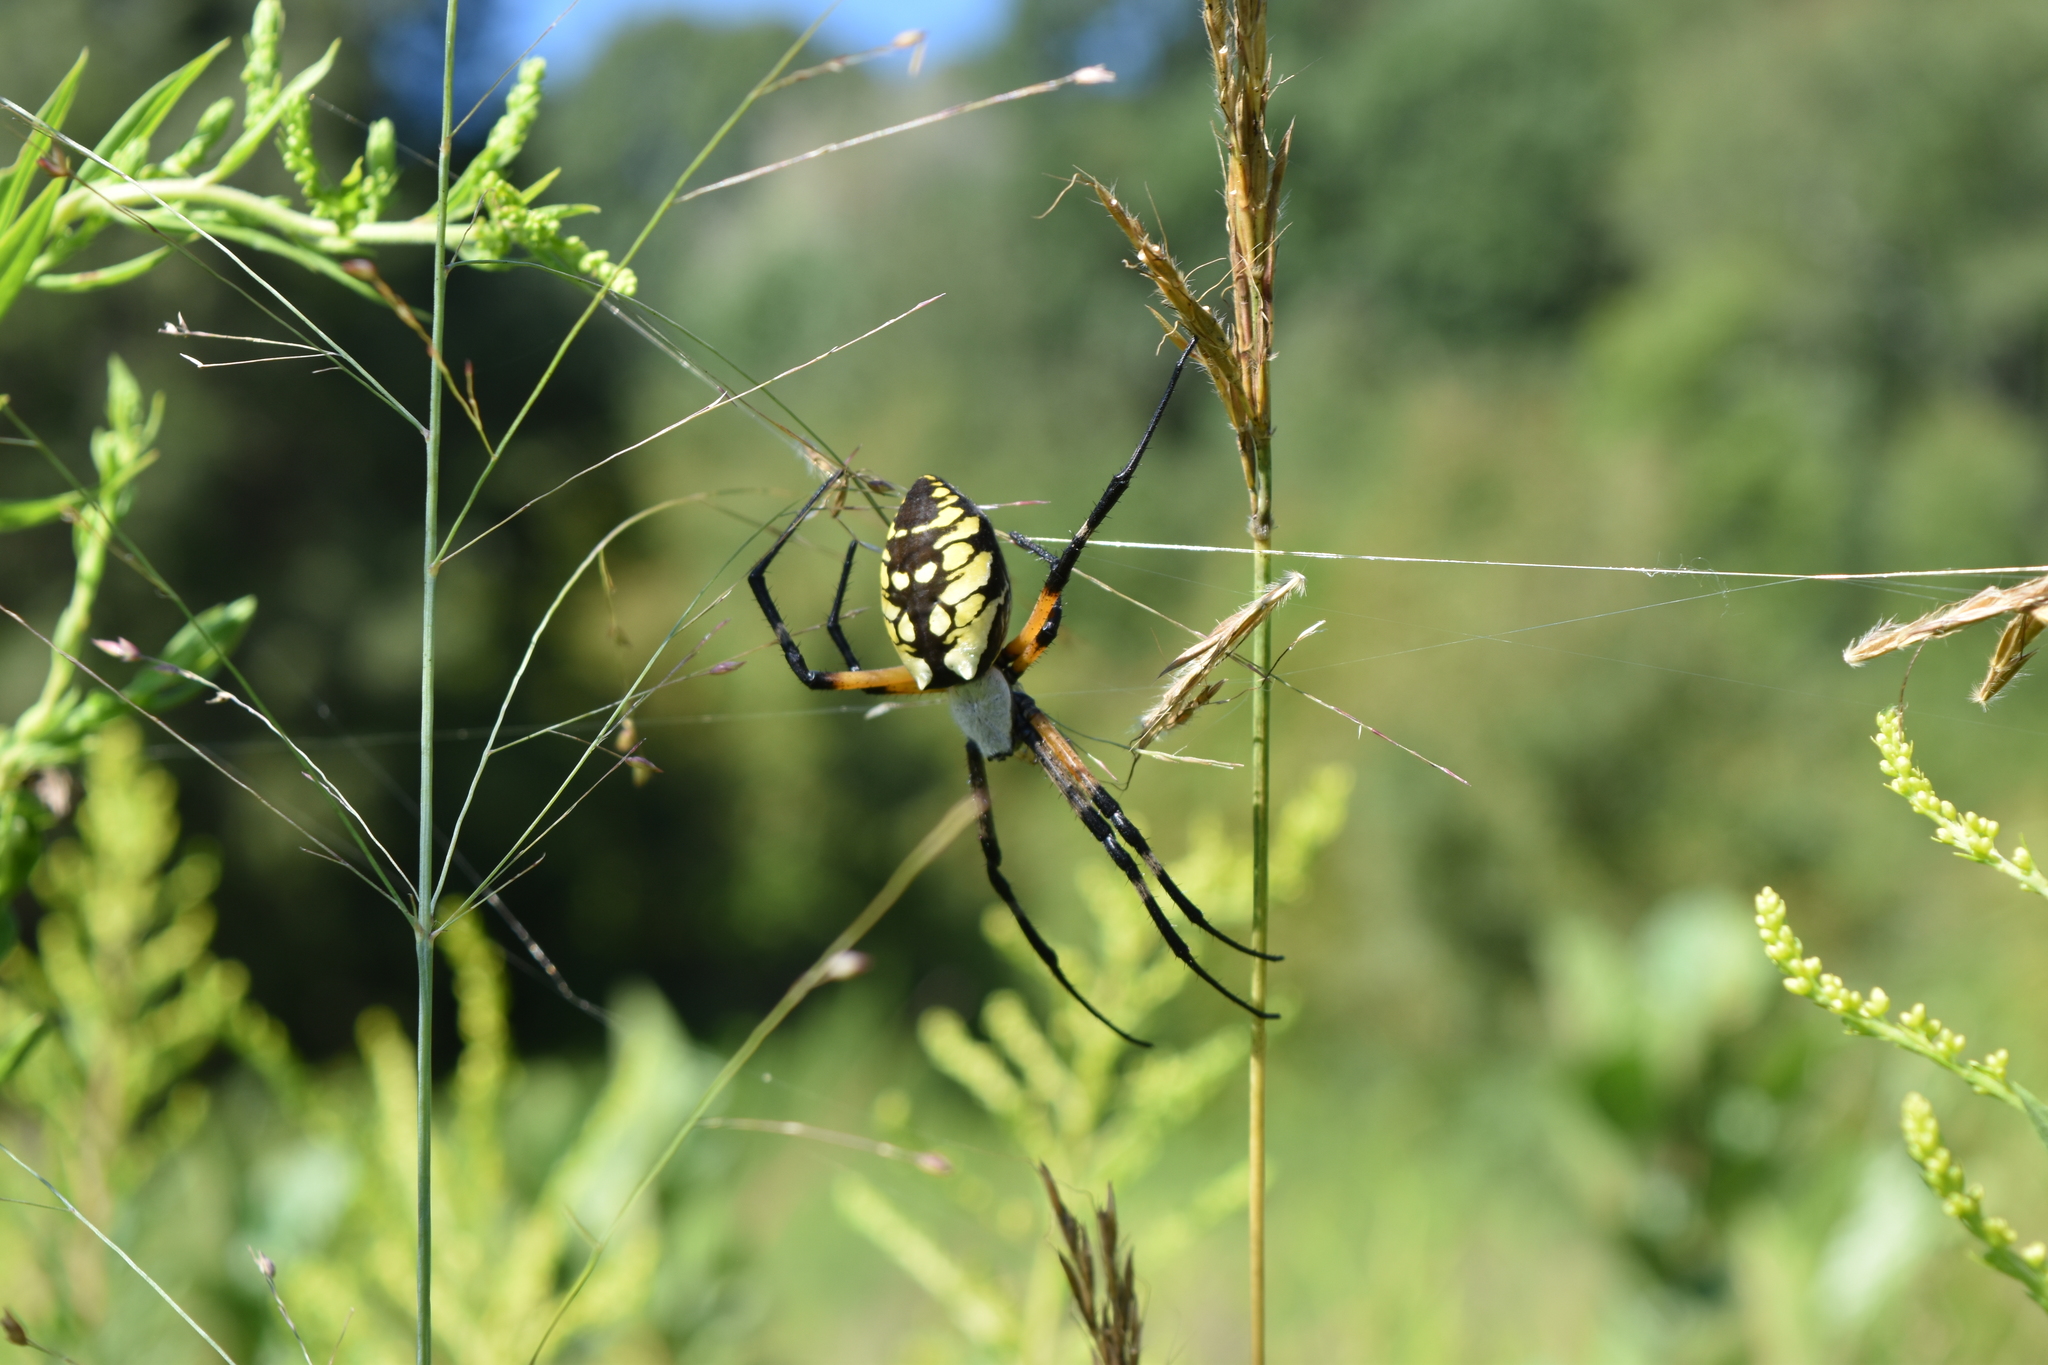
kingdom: Animalia
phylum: Arthropoda
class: Arachnida
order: Araneae
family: Araneidae
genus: Argiope
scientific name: Argiope aurantia
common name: Orb weavers
